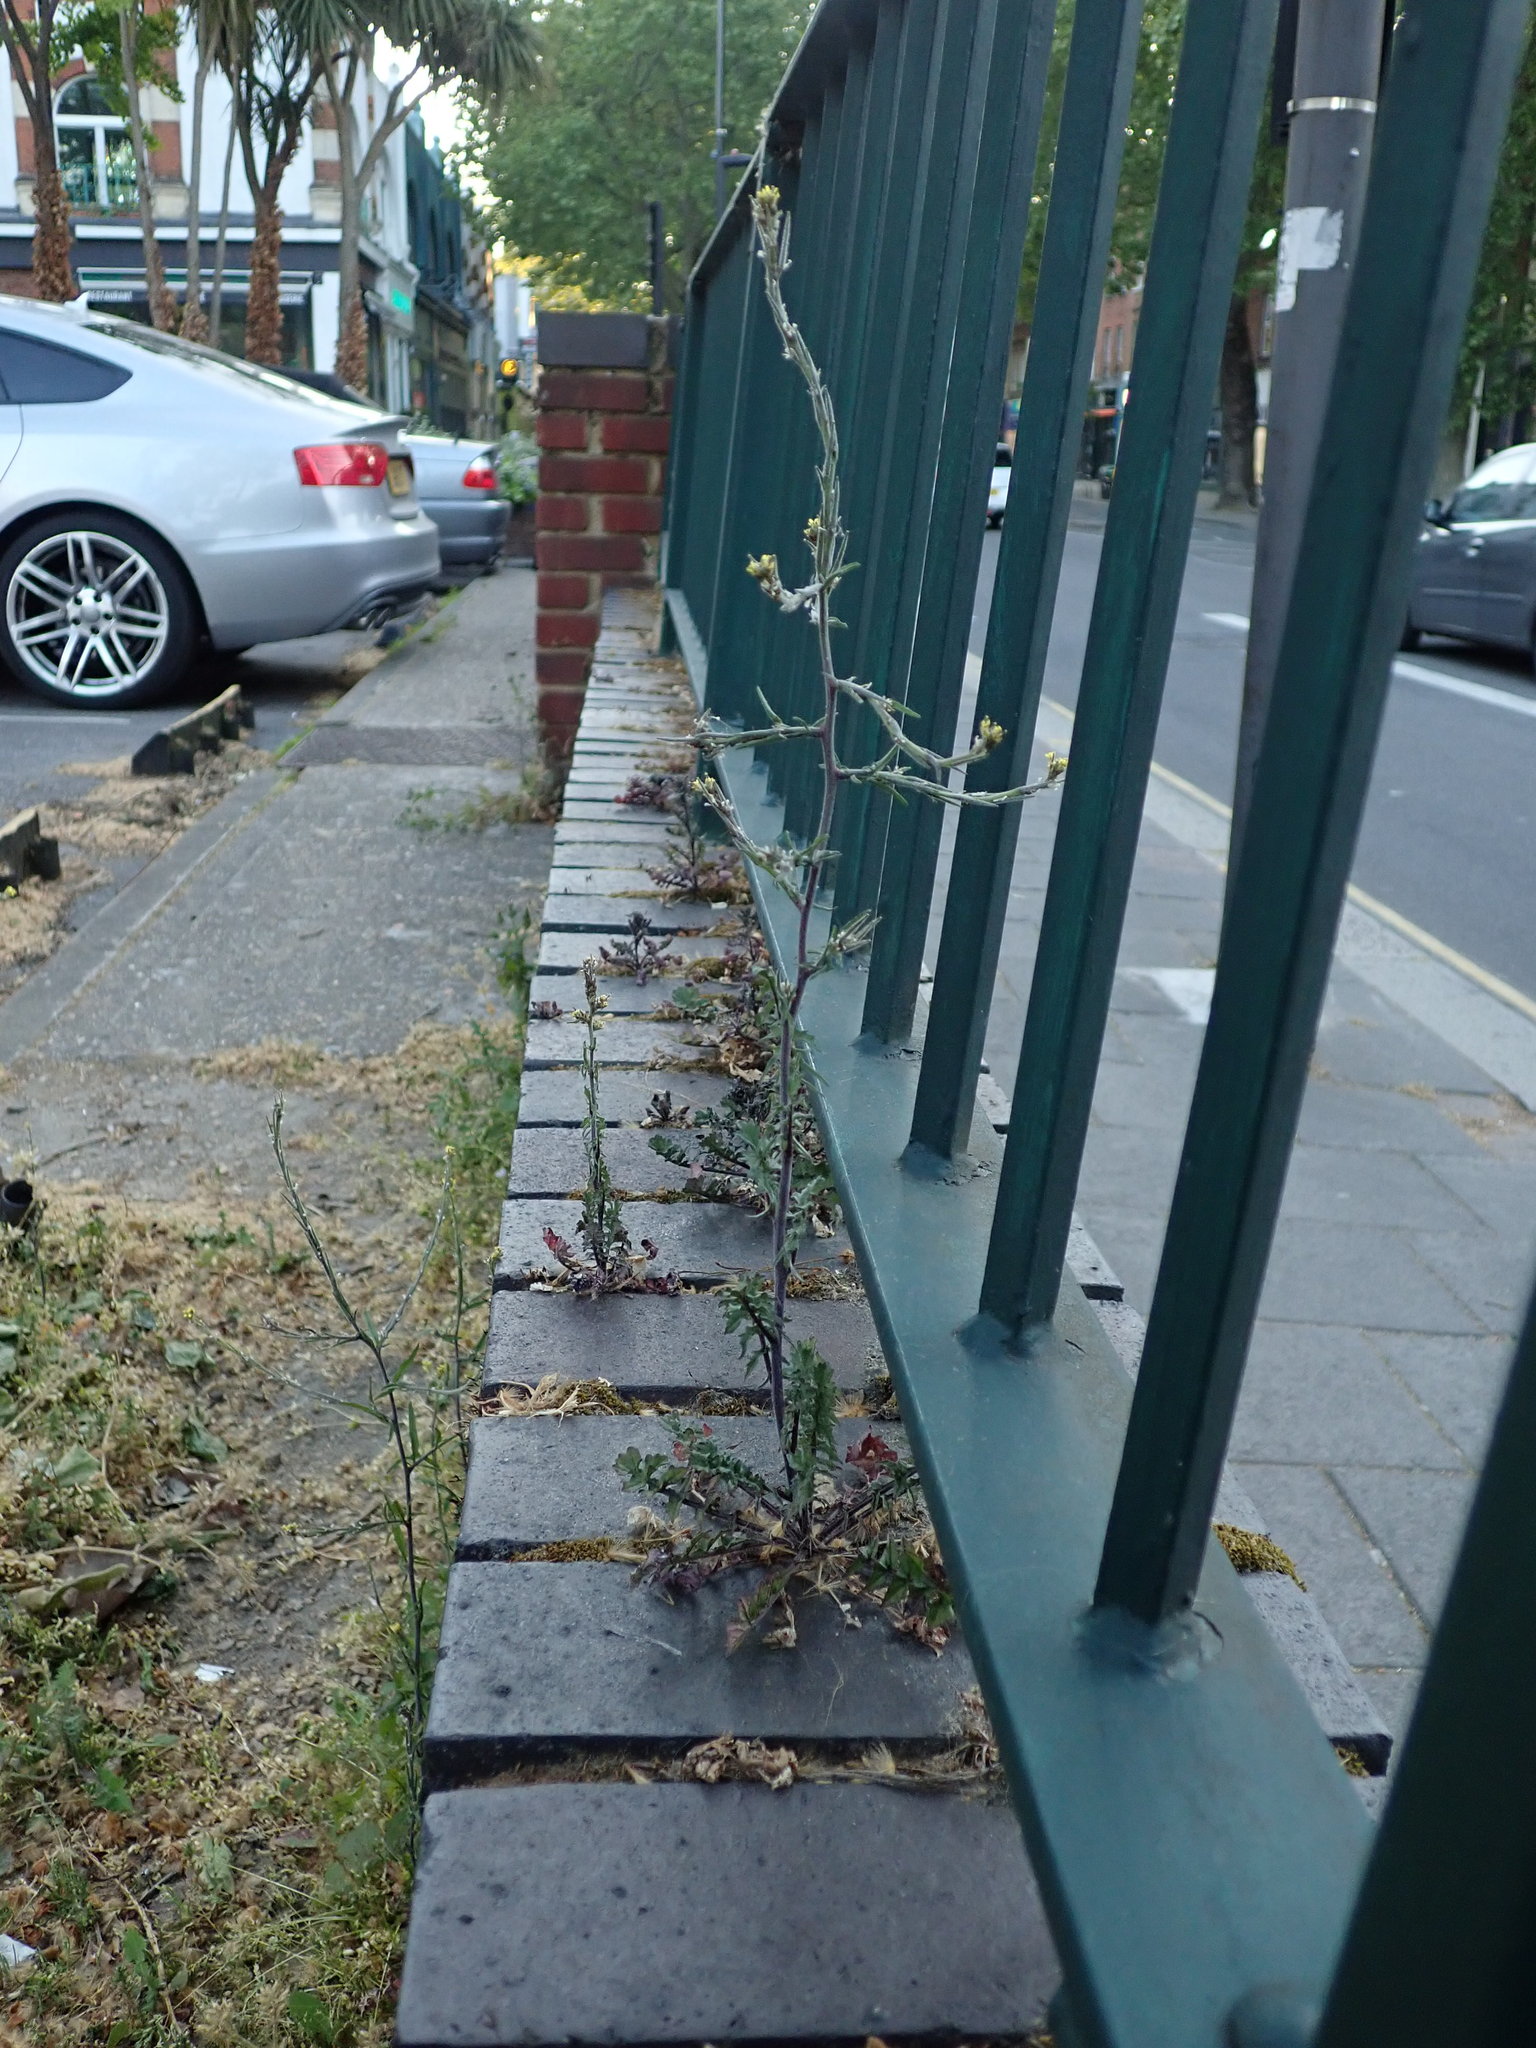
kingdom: Plantae
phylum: Tracheophyta
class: Magnoliopsida
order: Brassicales
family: Brassicaceae
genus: Sisymbrium
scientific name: Sisymbrium officinale
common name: Hedge mustard
